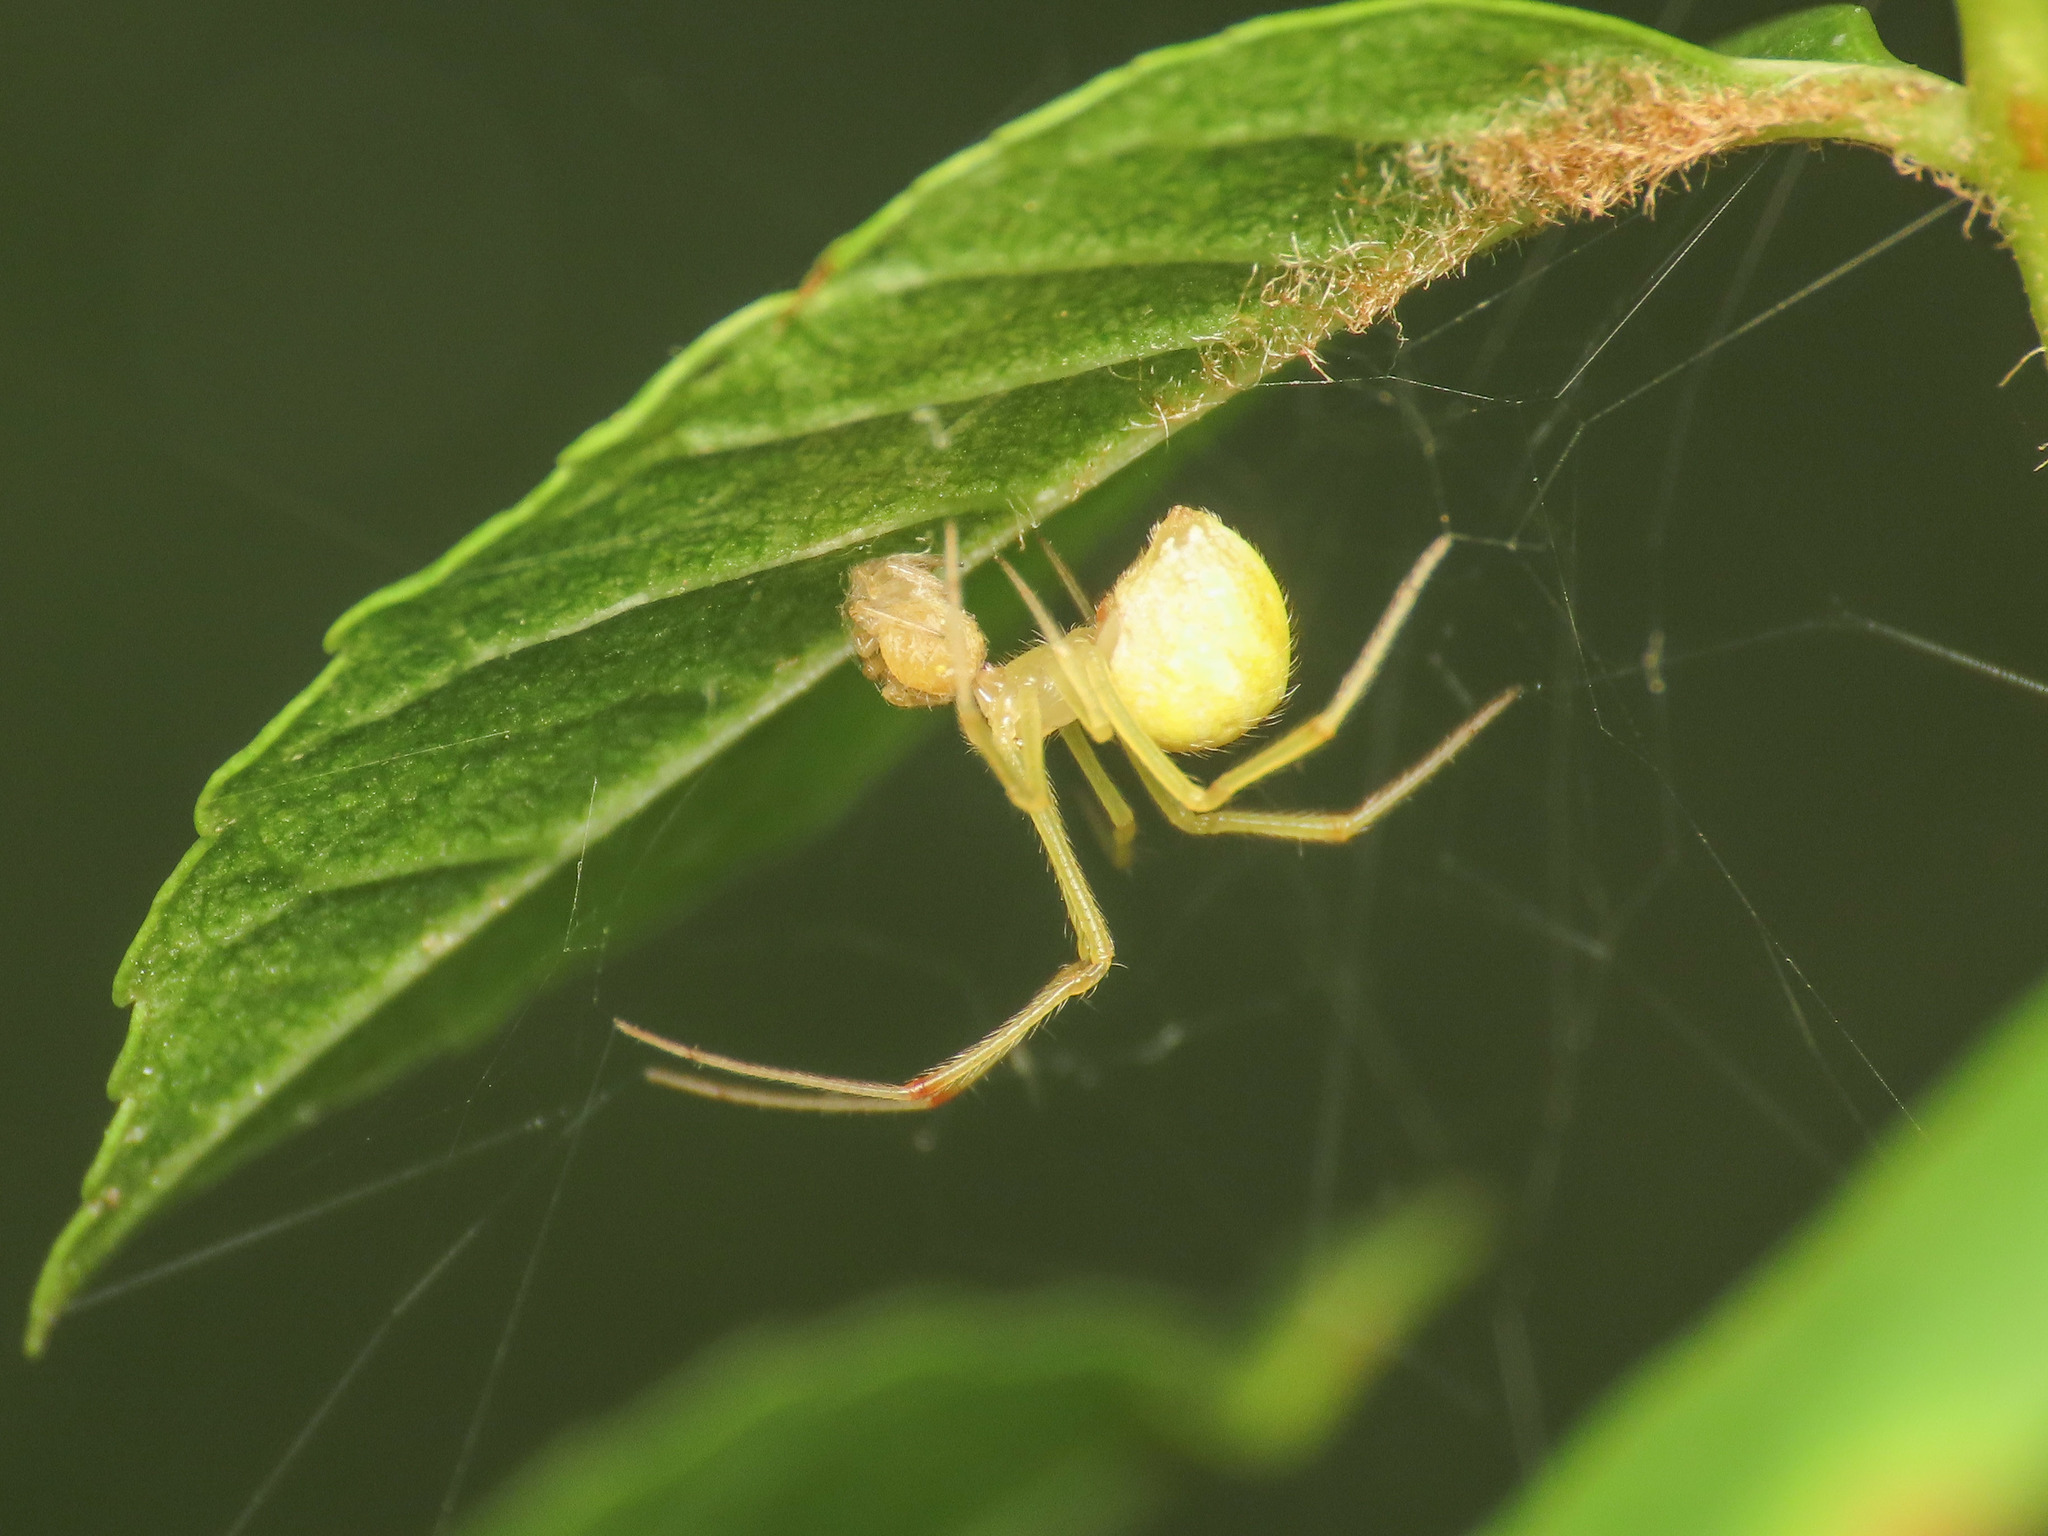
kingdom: Animalia
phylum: Arthropoda
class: Arachnida
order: Araneae
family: Theridiidae
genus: Heterotheridion
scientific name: Heterotheridion nigrovariegatum
